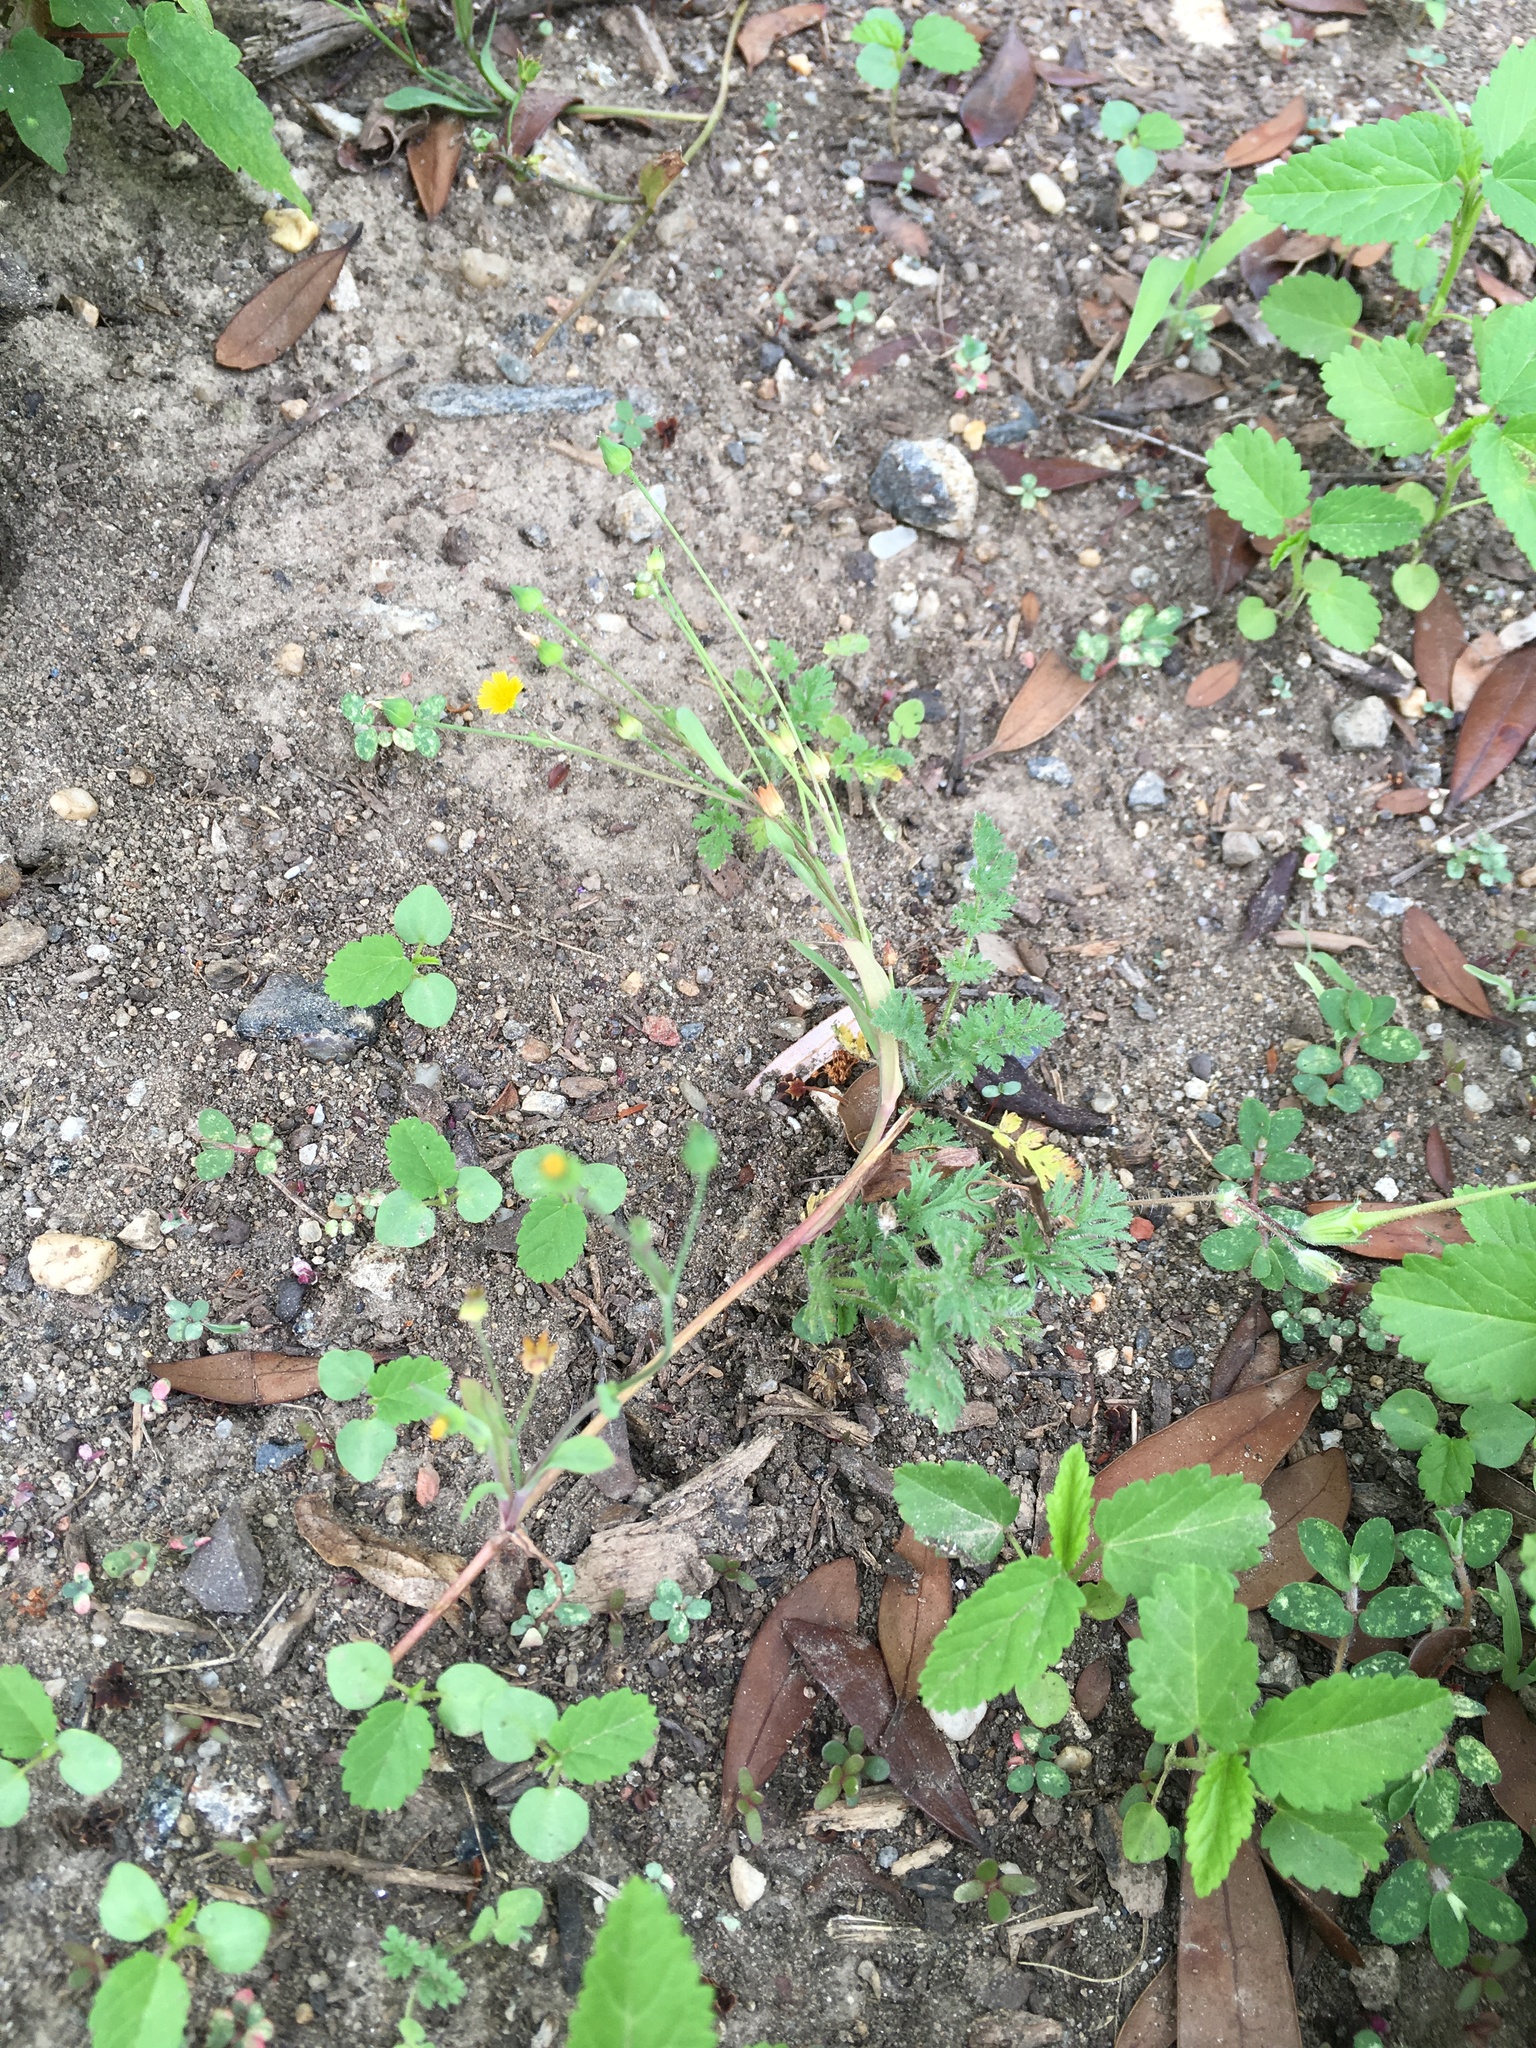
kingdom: Plantae
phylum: Tracheophyta
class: Magnoliopsida
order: Asterales
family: Asteraceae
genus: Krigia
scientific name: Krigia cespitosa
